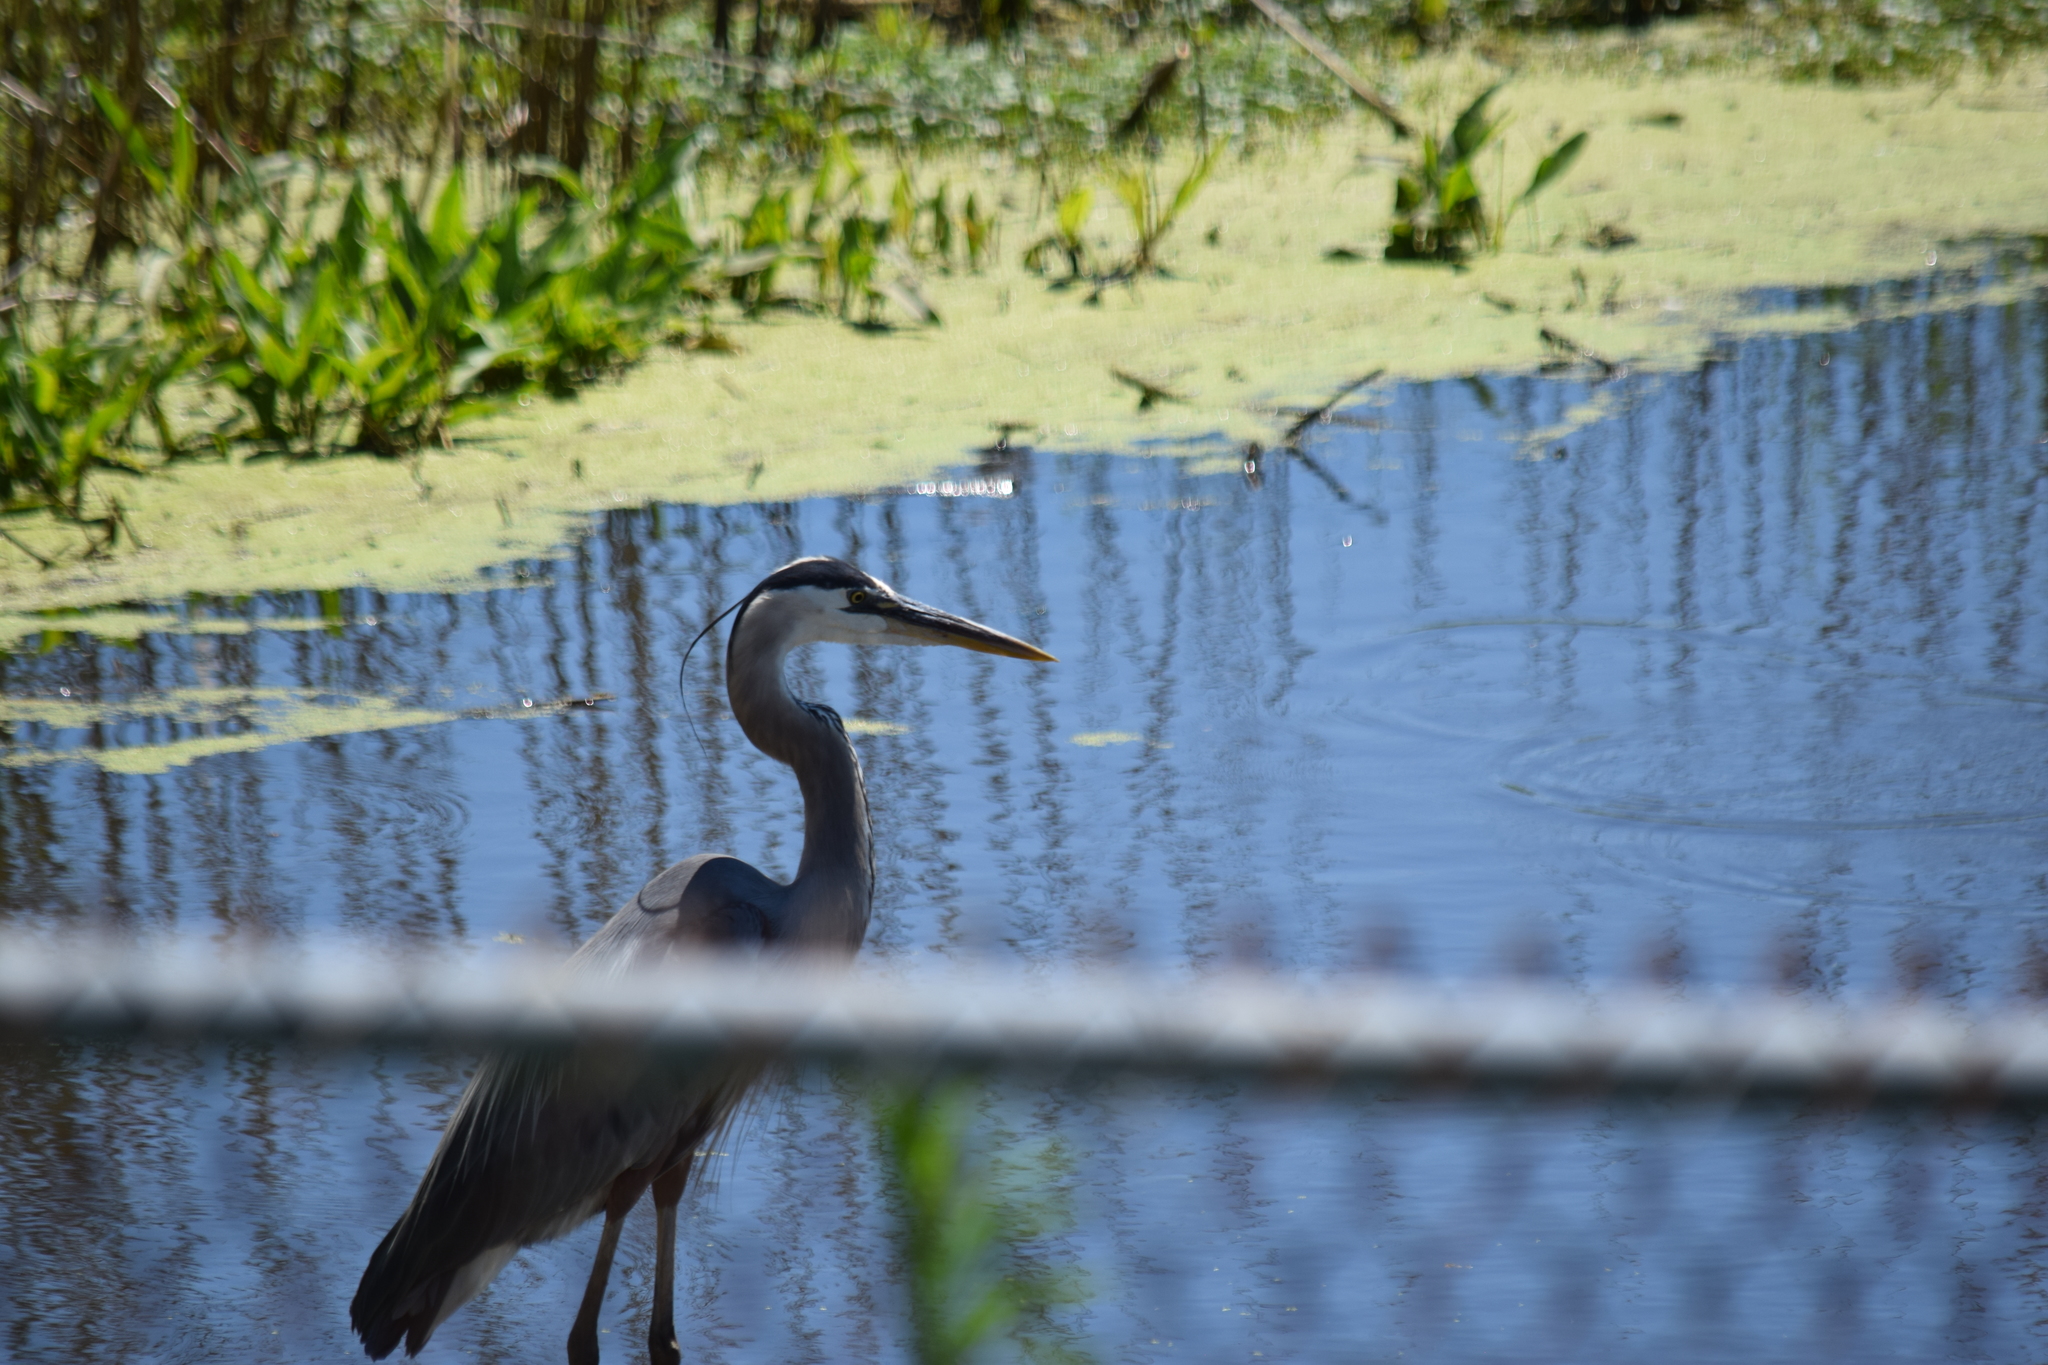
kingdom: Animalia
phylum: Chordata
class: Aves
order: Pelecaniformes
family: Ardeidae
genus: Ardea
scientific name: Ardea herodias
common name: Great blue heron
